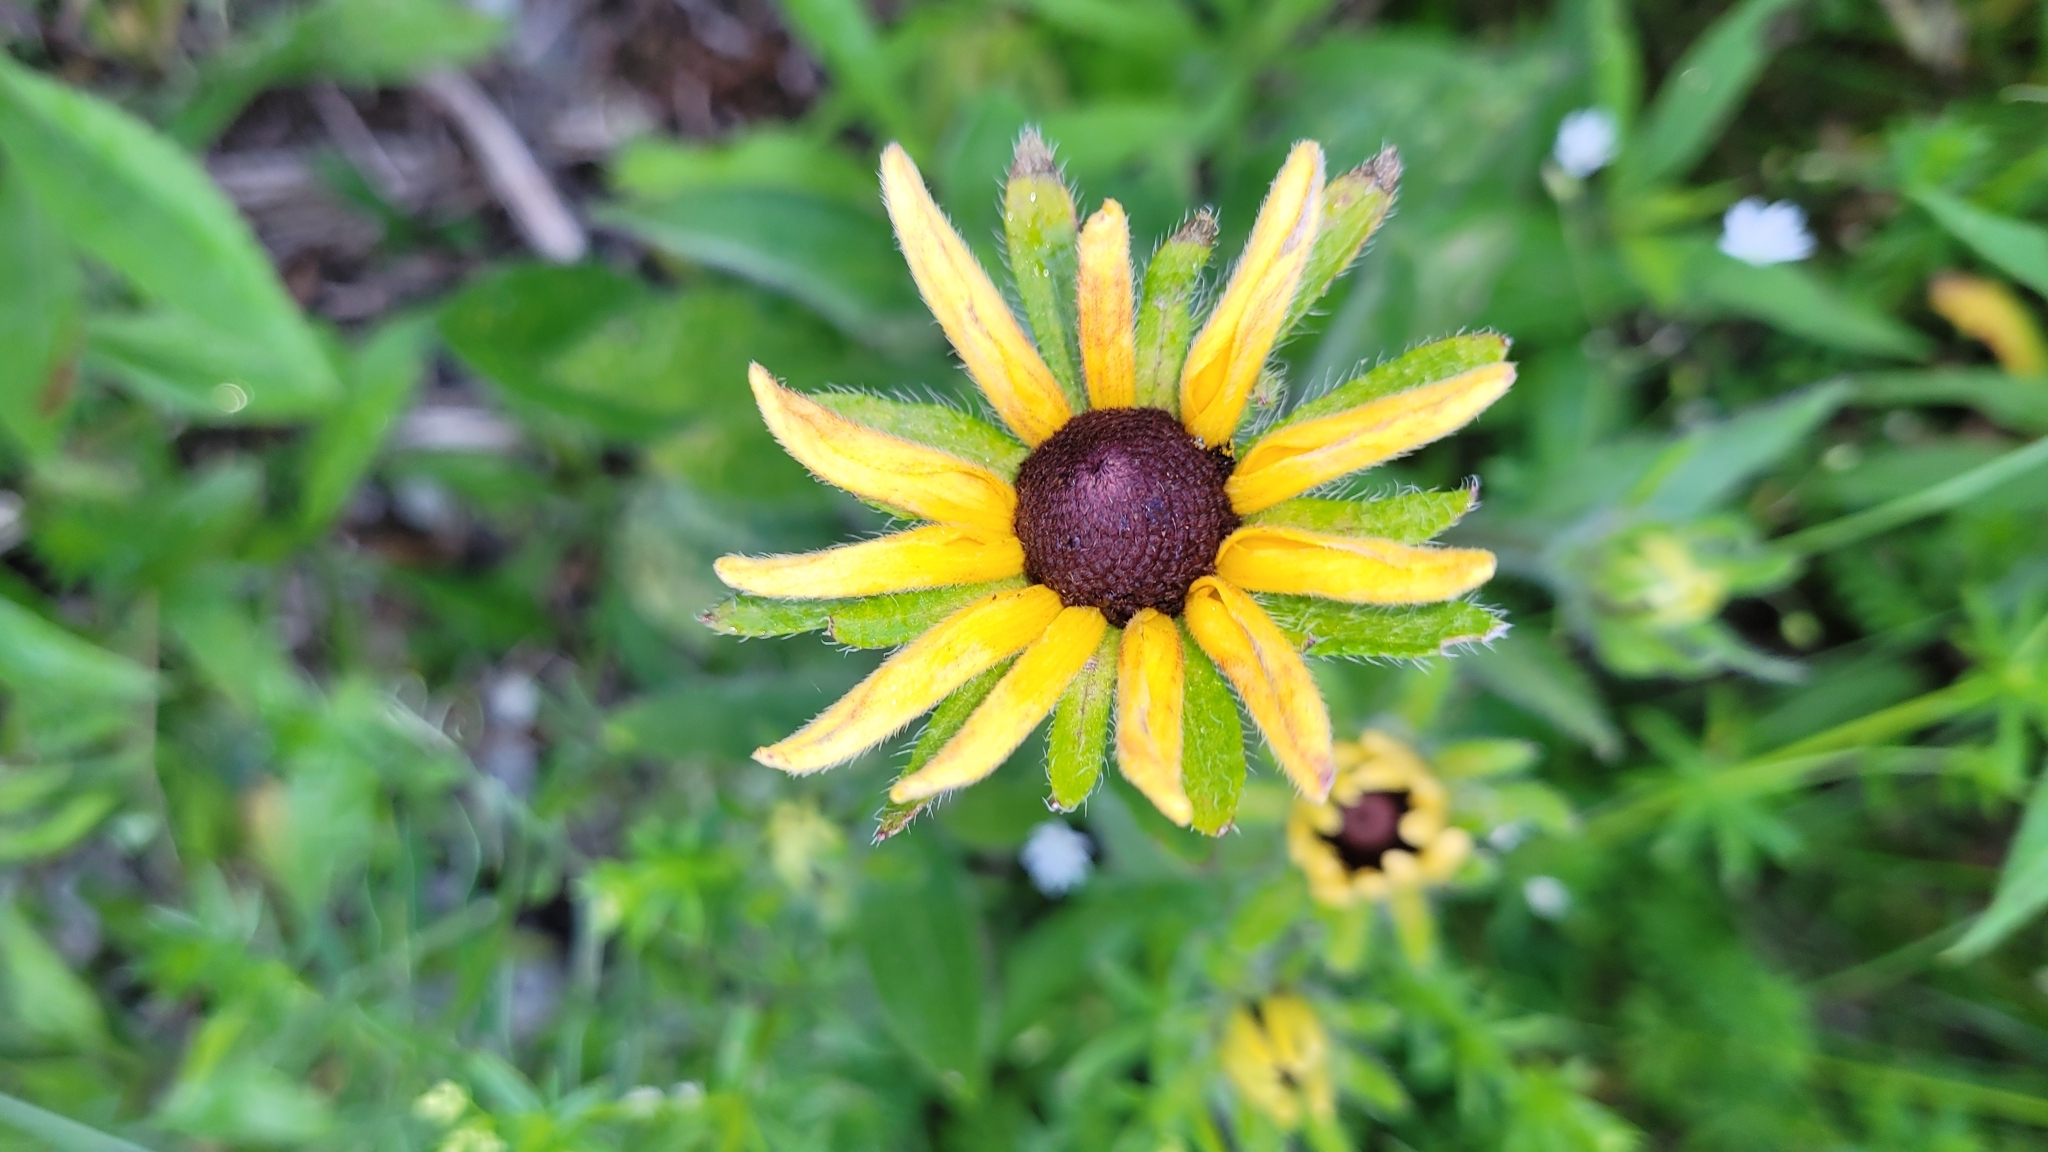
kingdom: Plantae
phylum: Tracheophyta
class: Magnoliopsida
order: Asterales
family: Asteraceae
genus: Rudbeckia
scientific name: Rudbeckia hirta
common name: Black-eyed-susan
